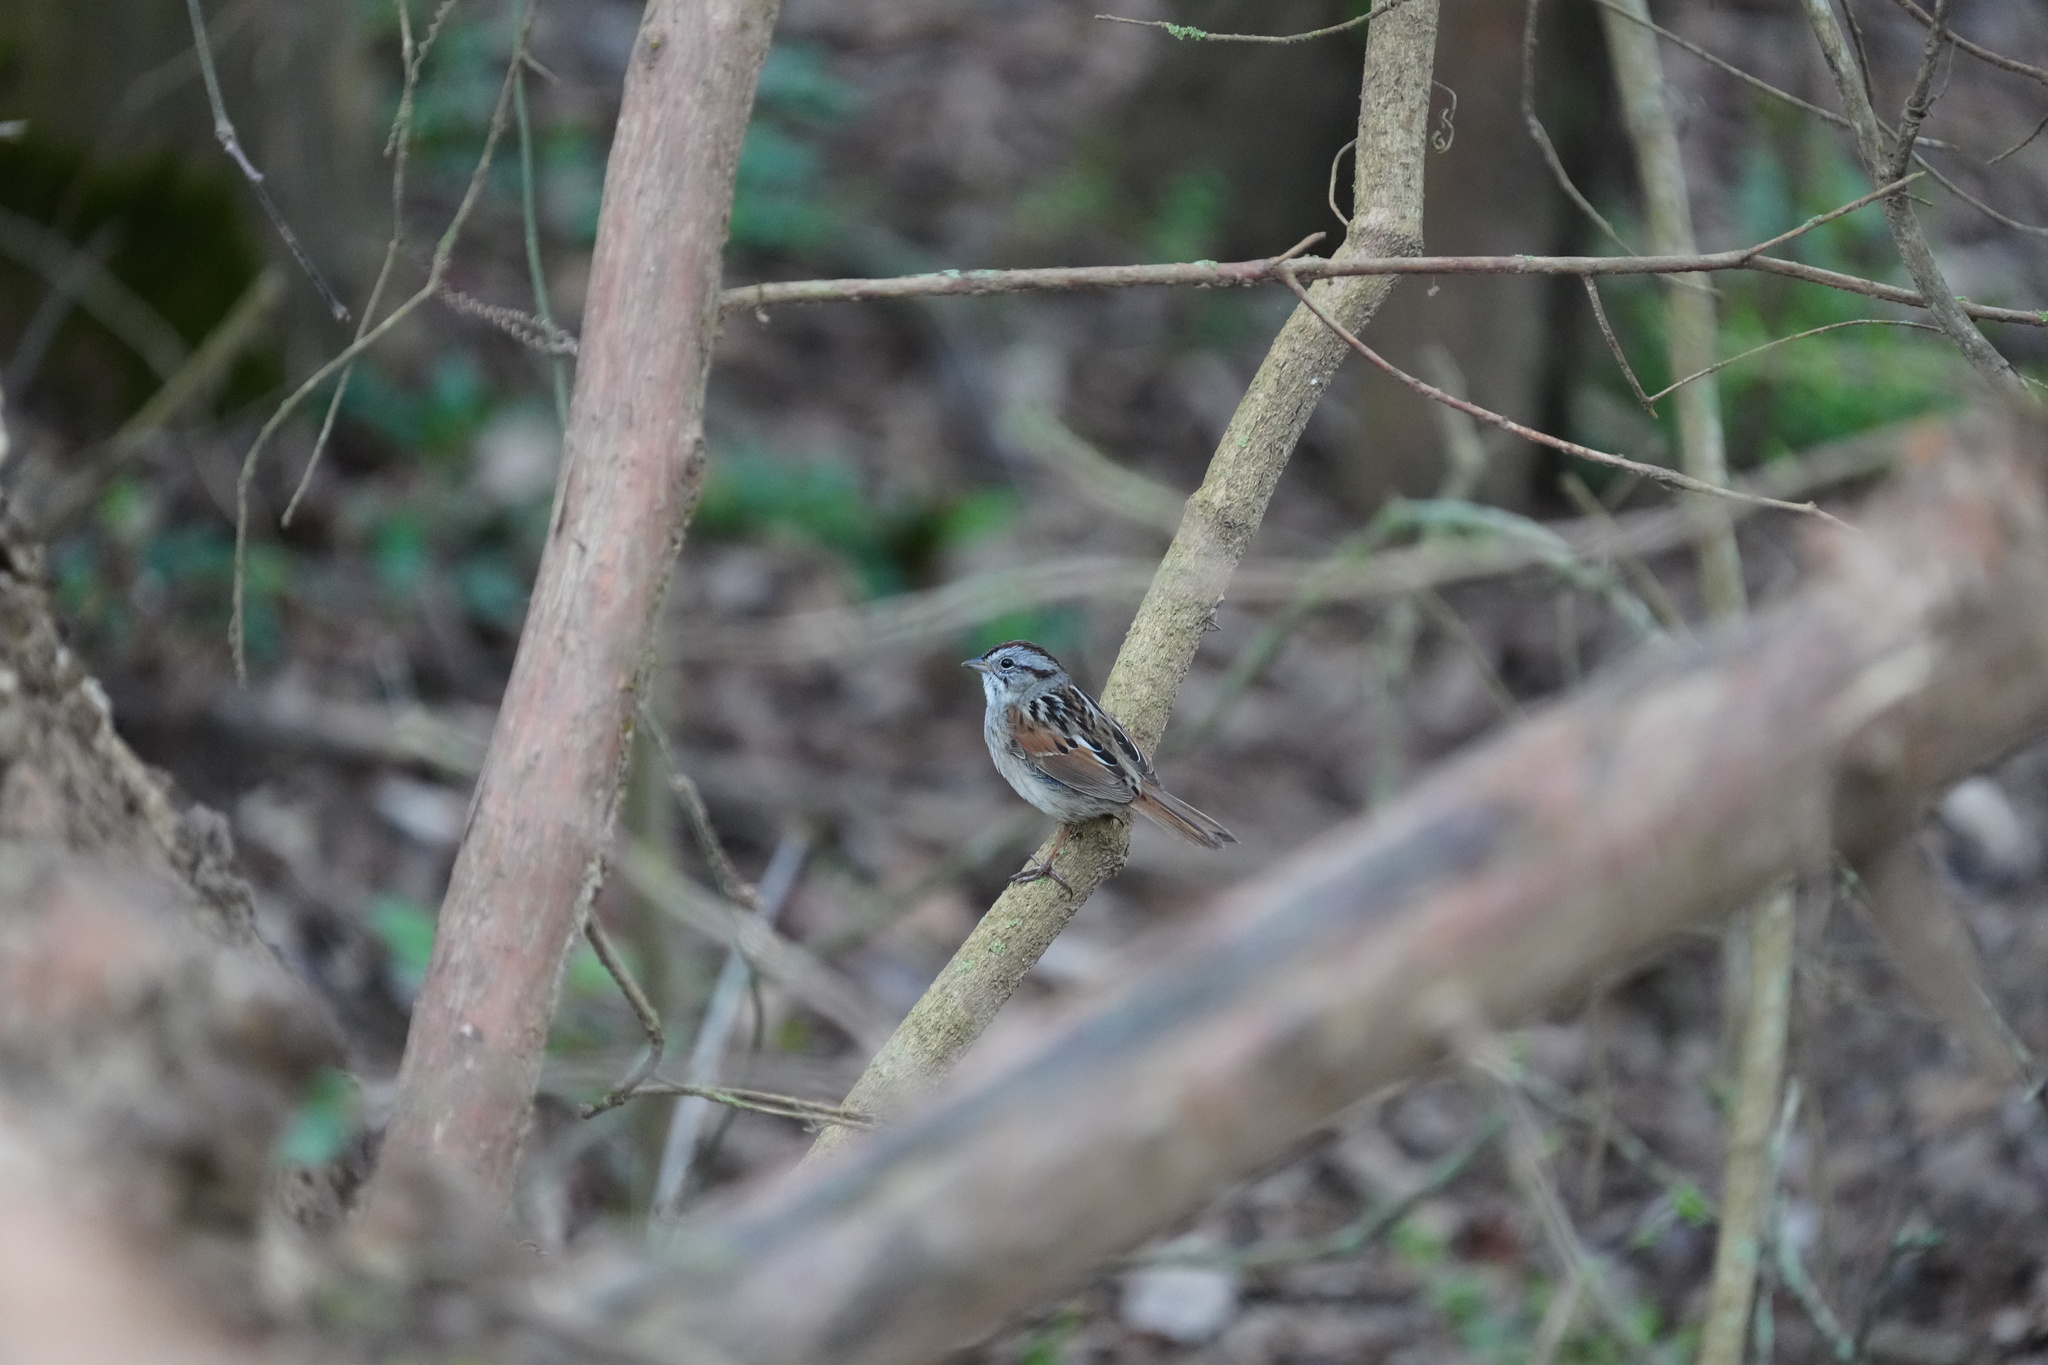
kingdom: Animalia
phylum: Chordata
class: Aves
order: Passeriformes
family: Passerellidae
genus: Melospiza
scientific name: Melospiza georgiana
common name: Swamp sparrow
